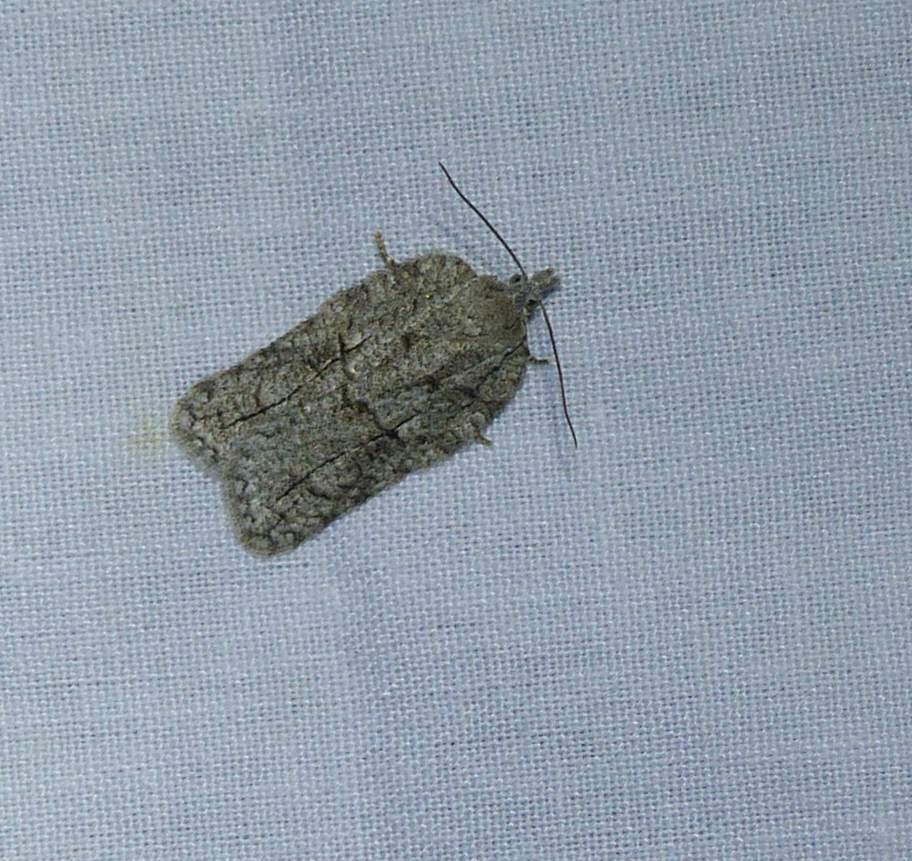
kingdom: Animalia
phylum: Arthropoda
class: Insecta
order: Lepidoptera
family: Tortricidae
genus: Acleris
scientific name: Acleris nigrolinea
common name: Black-lined acleris
